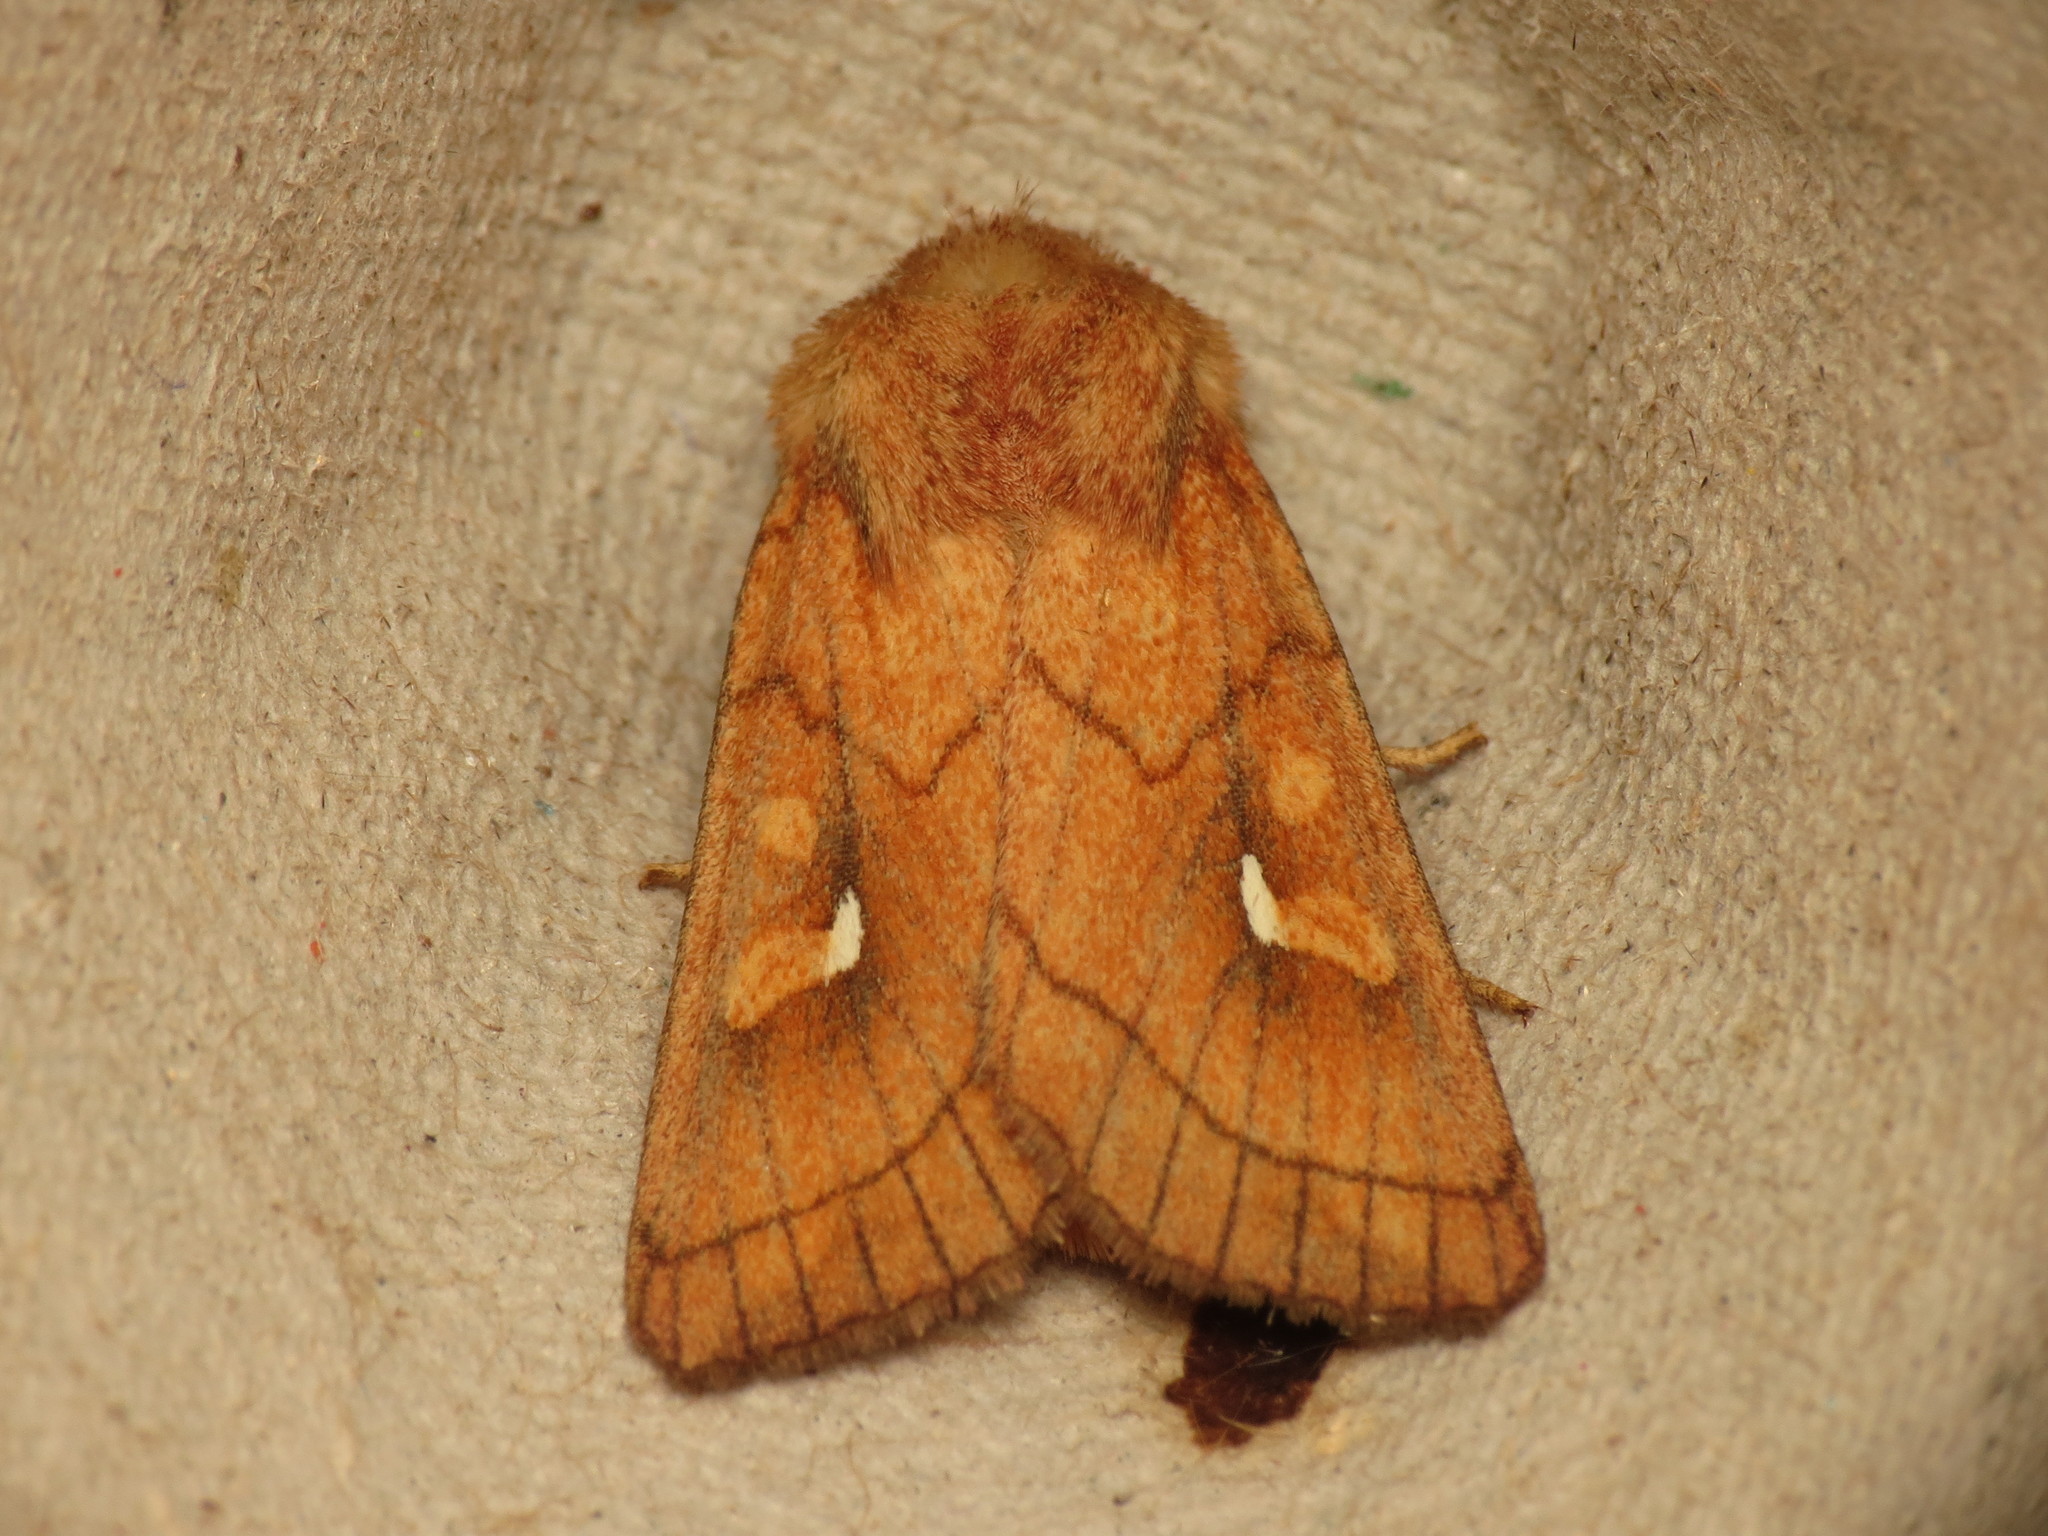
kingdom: Animalia
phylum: Arthropoda
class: Insecta
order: Lepidoptera
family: Noctuidae
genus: Mythimna
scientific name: Mythimna conigera
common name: Brown-line bright-eye
